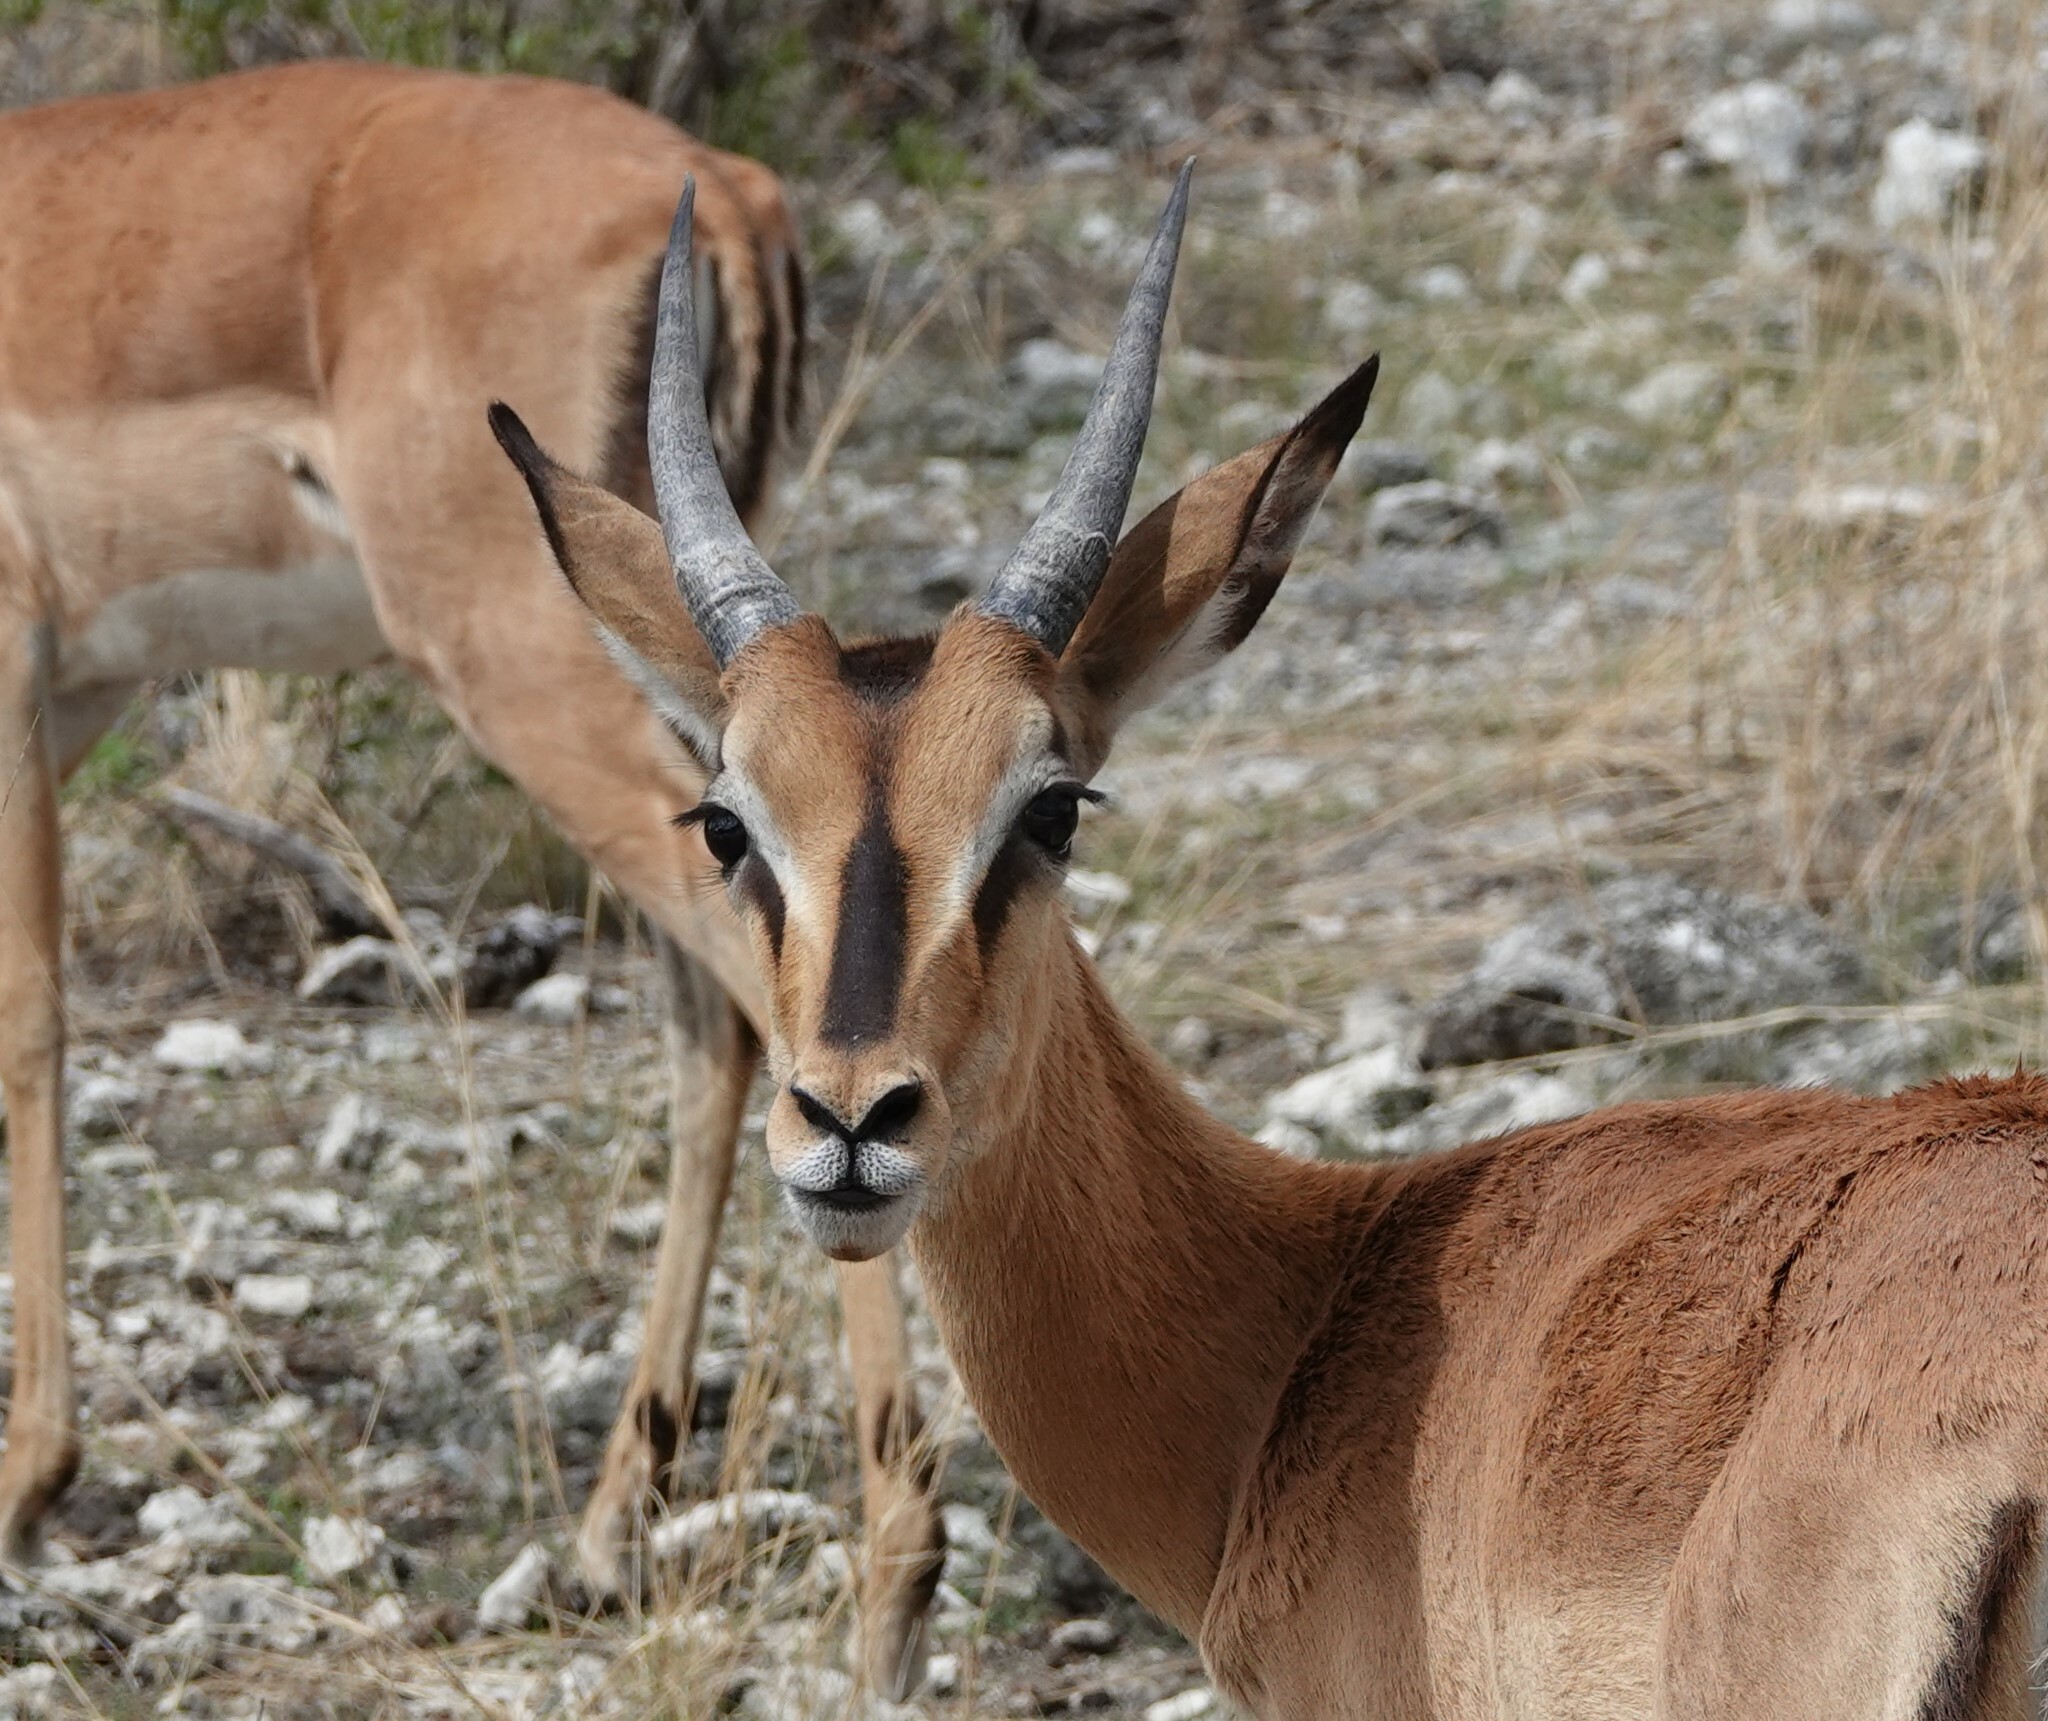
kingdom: Animalia
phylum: Chordata
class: Mammalia
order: Artiodactyla
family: Bovidae
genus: Aepyceros
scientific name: Aepyceros melampus
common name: Impala
